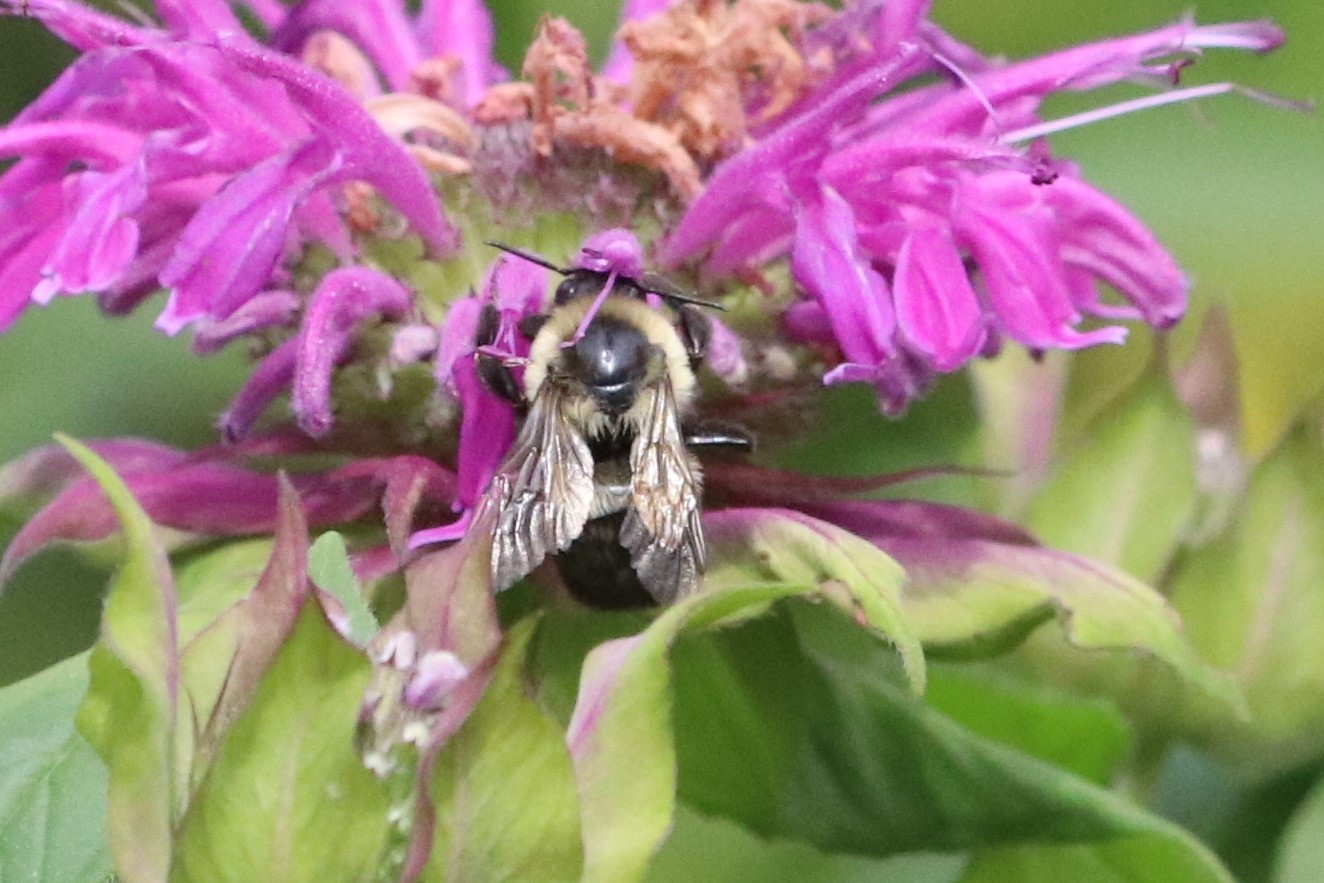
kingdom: Animalia
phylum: Arthropoda
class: Insecta
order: Hymenoptera
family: Apidae
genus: Bombus
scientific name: Bombus impatiens
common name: Common eastern bumble bee
